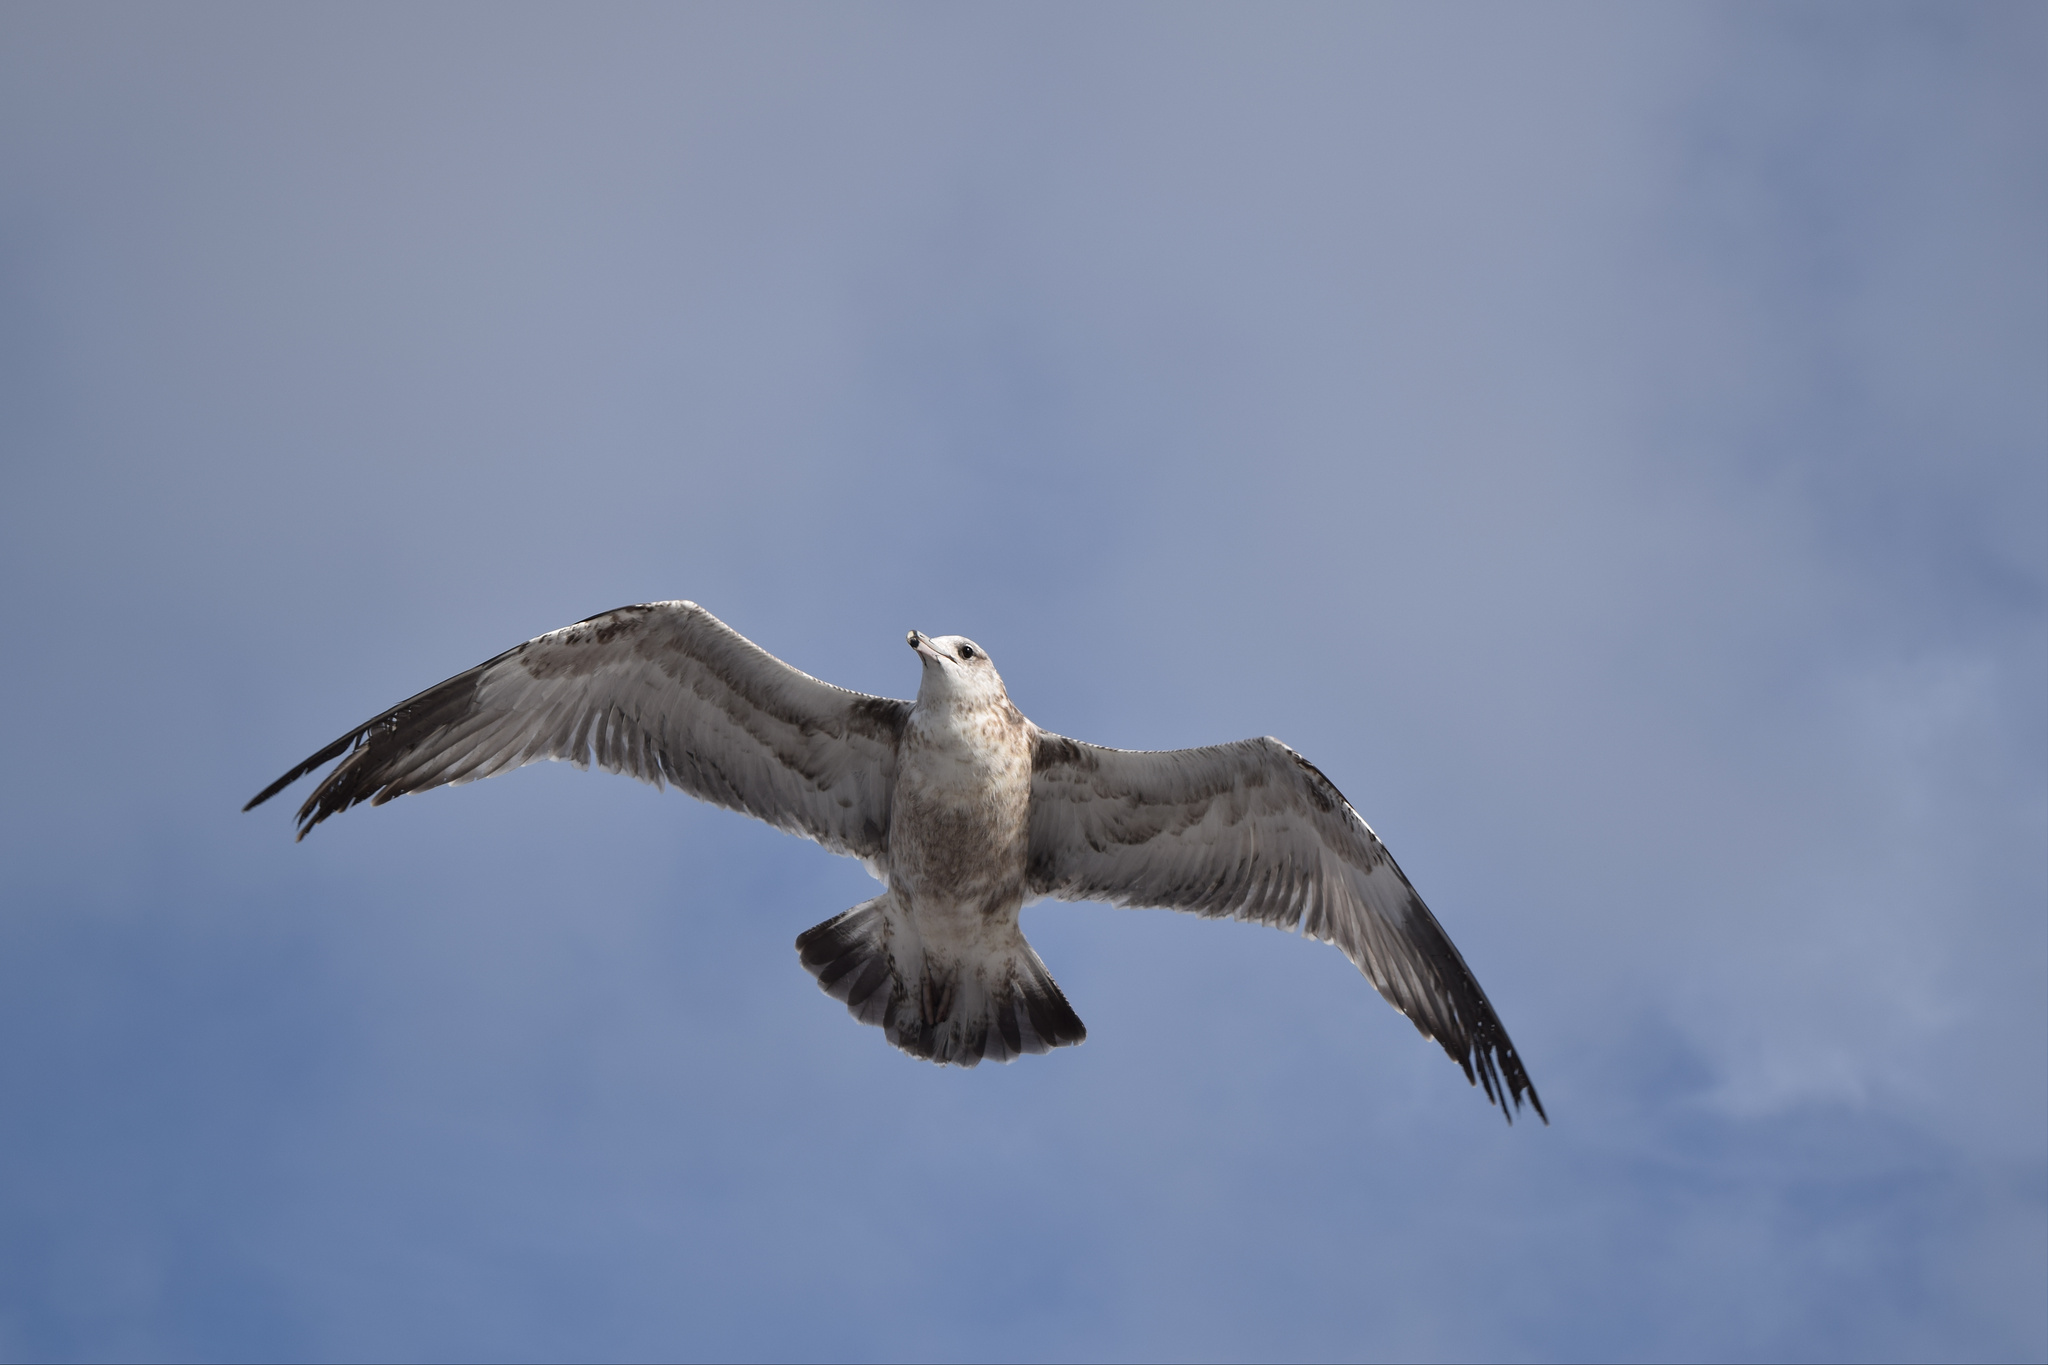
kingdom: Animalia
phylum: Chordata
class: Aves
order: Charadriiformes
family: Laridae
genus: Larus
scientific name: Larus californicus
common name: California gull
